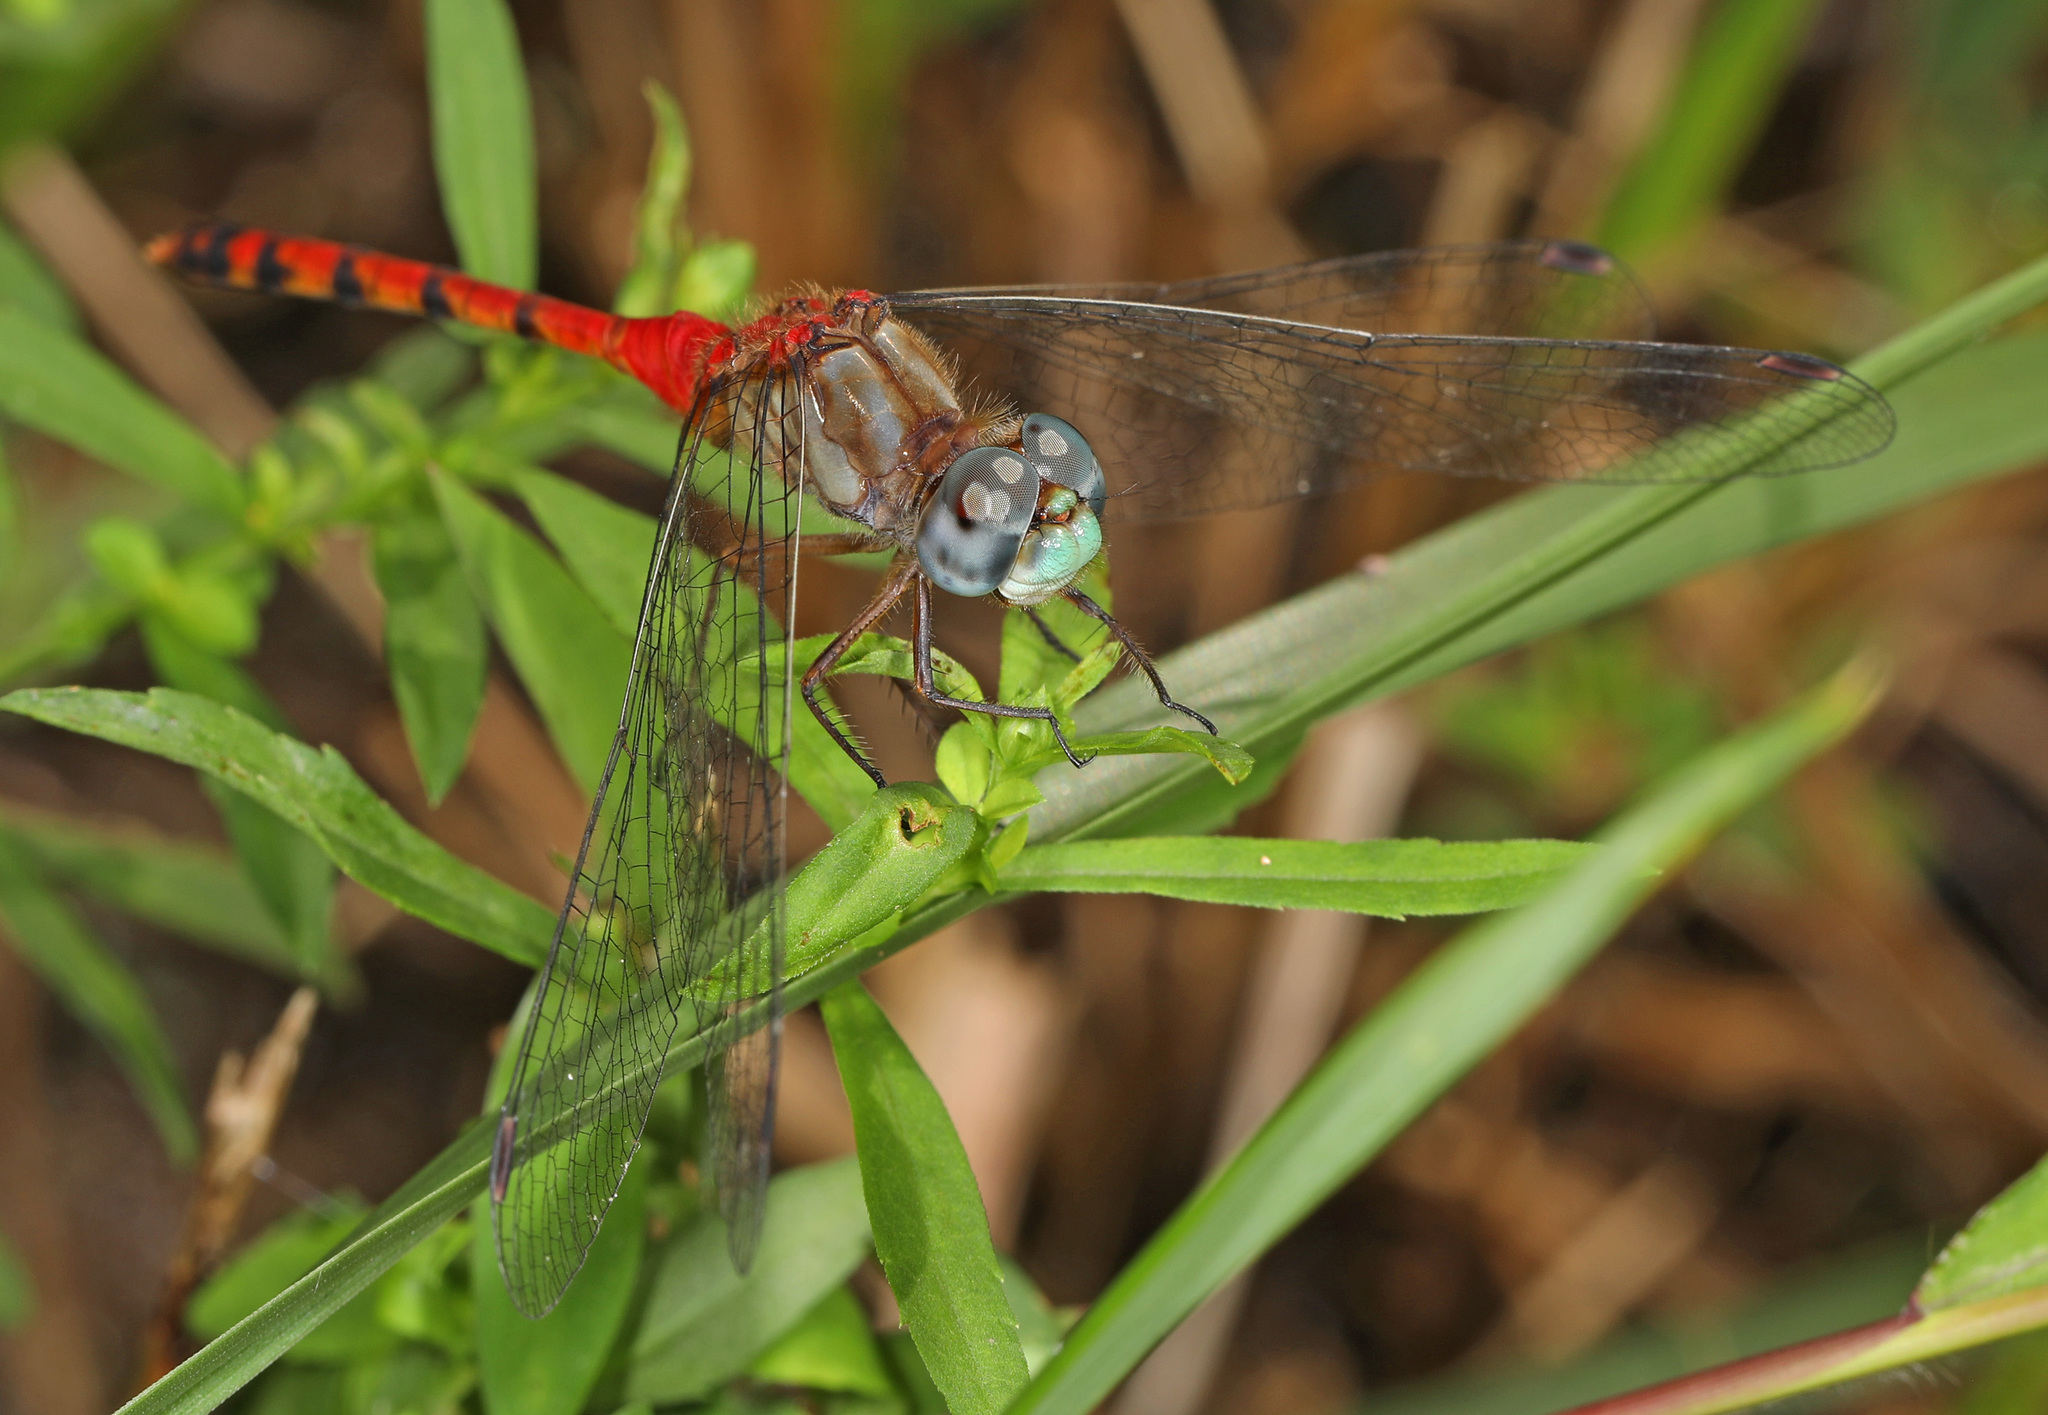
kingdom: Animalia
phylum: Arthropoda
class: Insecta
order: Odonata
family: Libellulidae
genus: Sympetrum
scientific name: Sympetrum ambiguum
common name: Blue-faced meadowhawk
